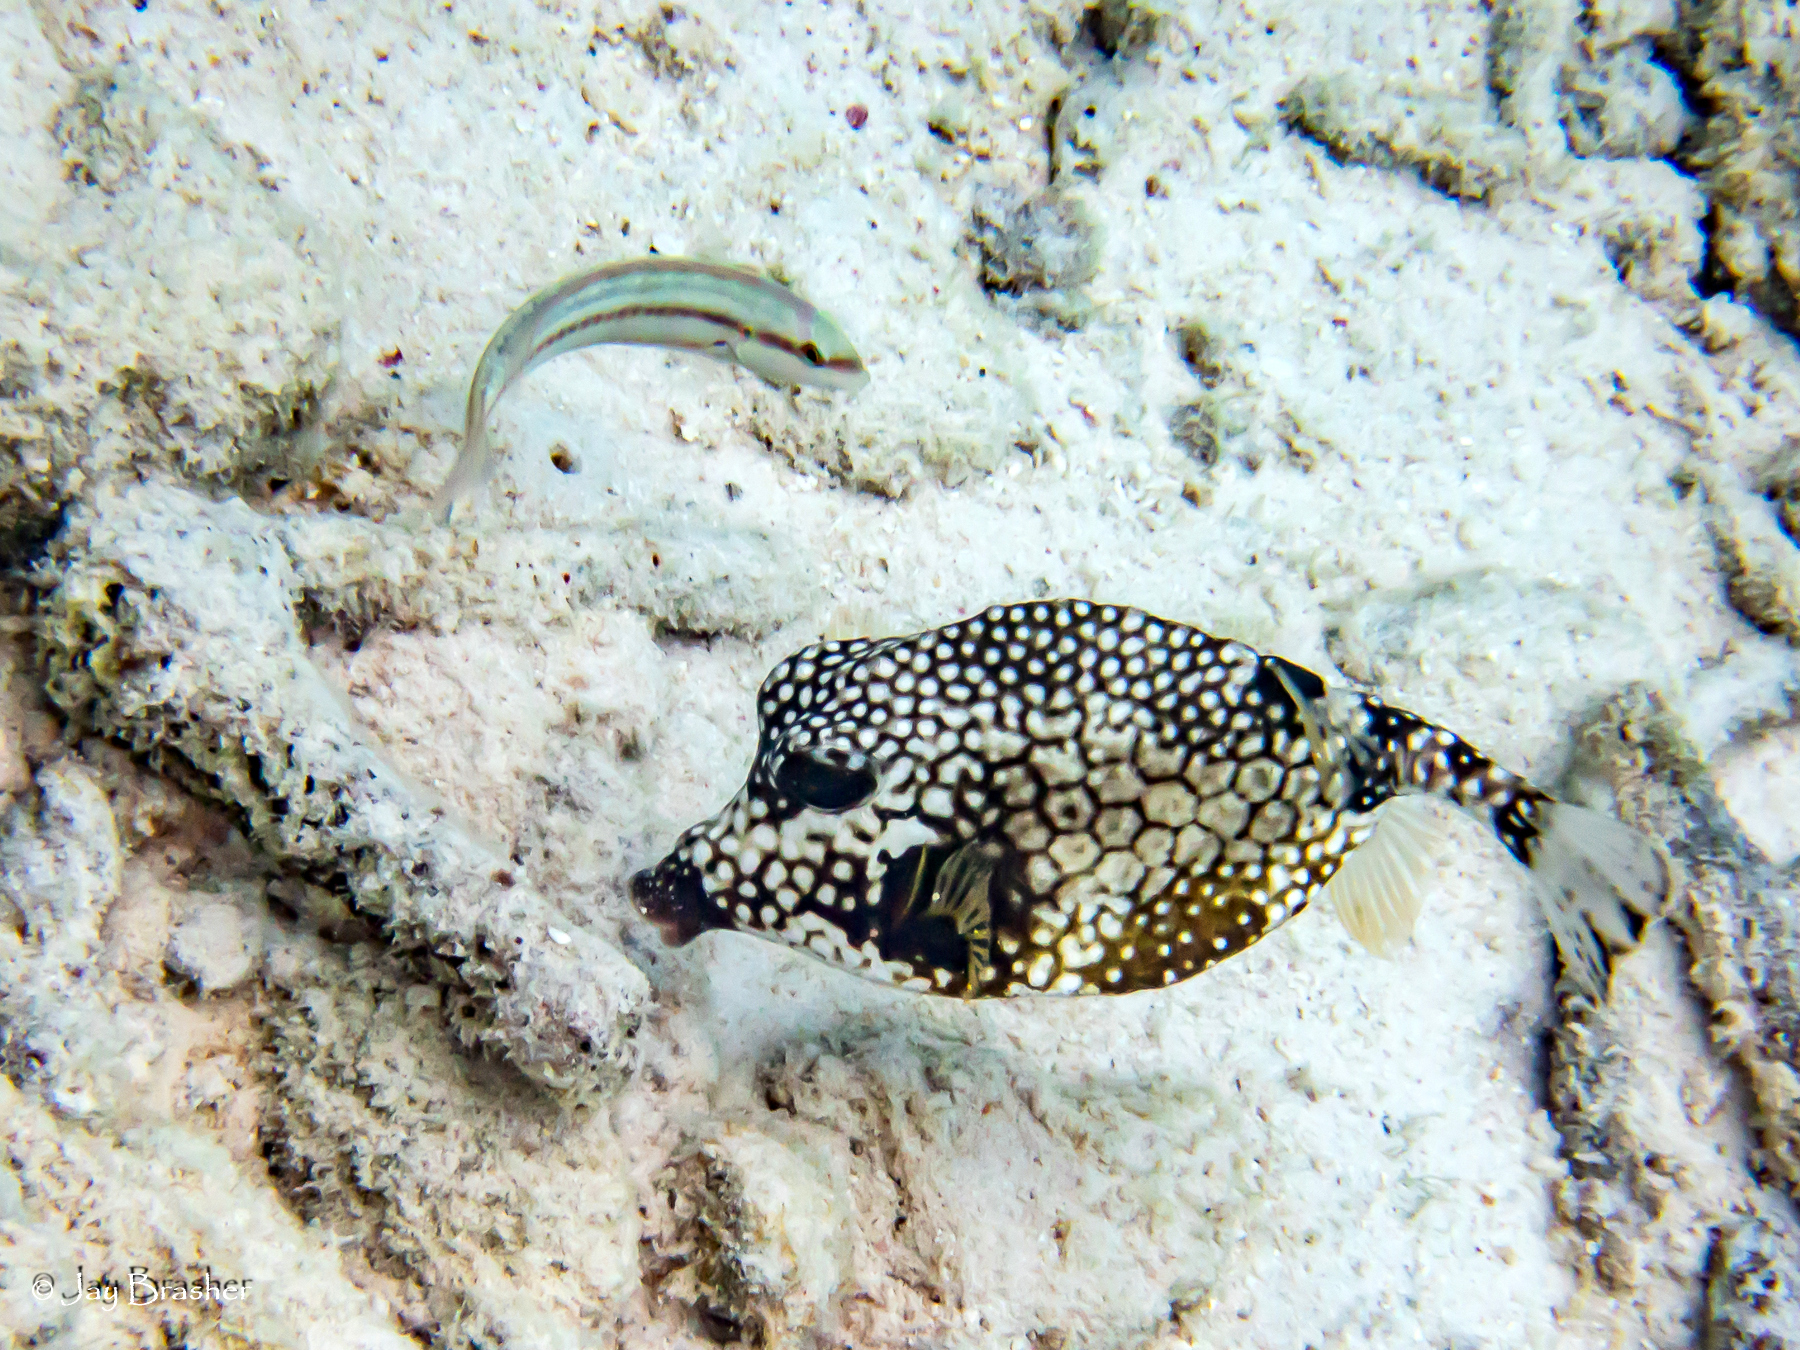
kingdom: Animalia
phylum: Chordata
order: Perciformes
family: Labridae
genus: Halichoeres
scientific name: Halichoeres bivittatus
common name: Slippery dick
